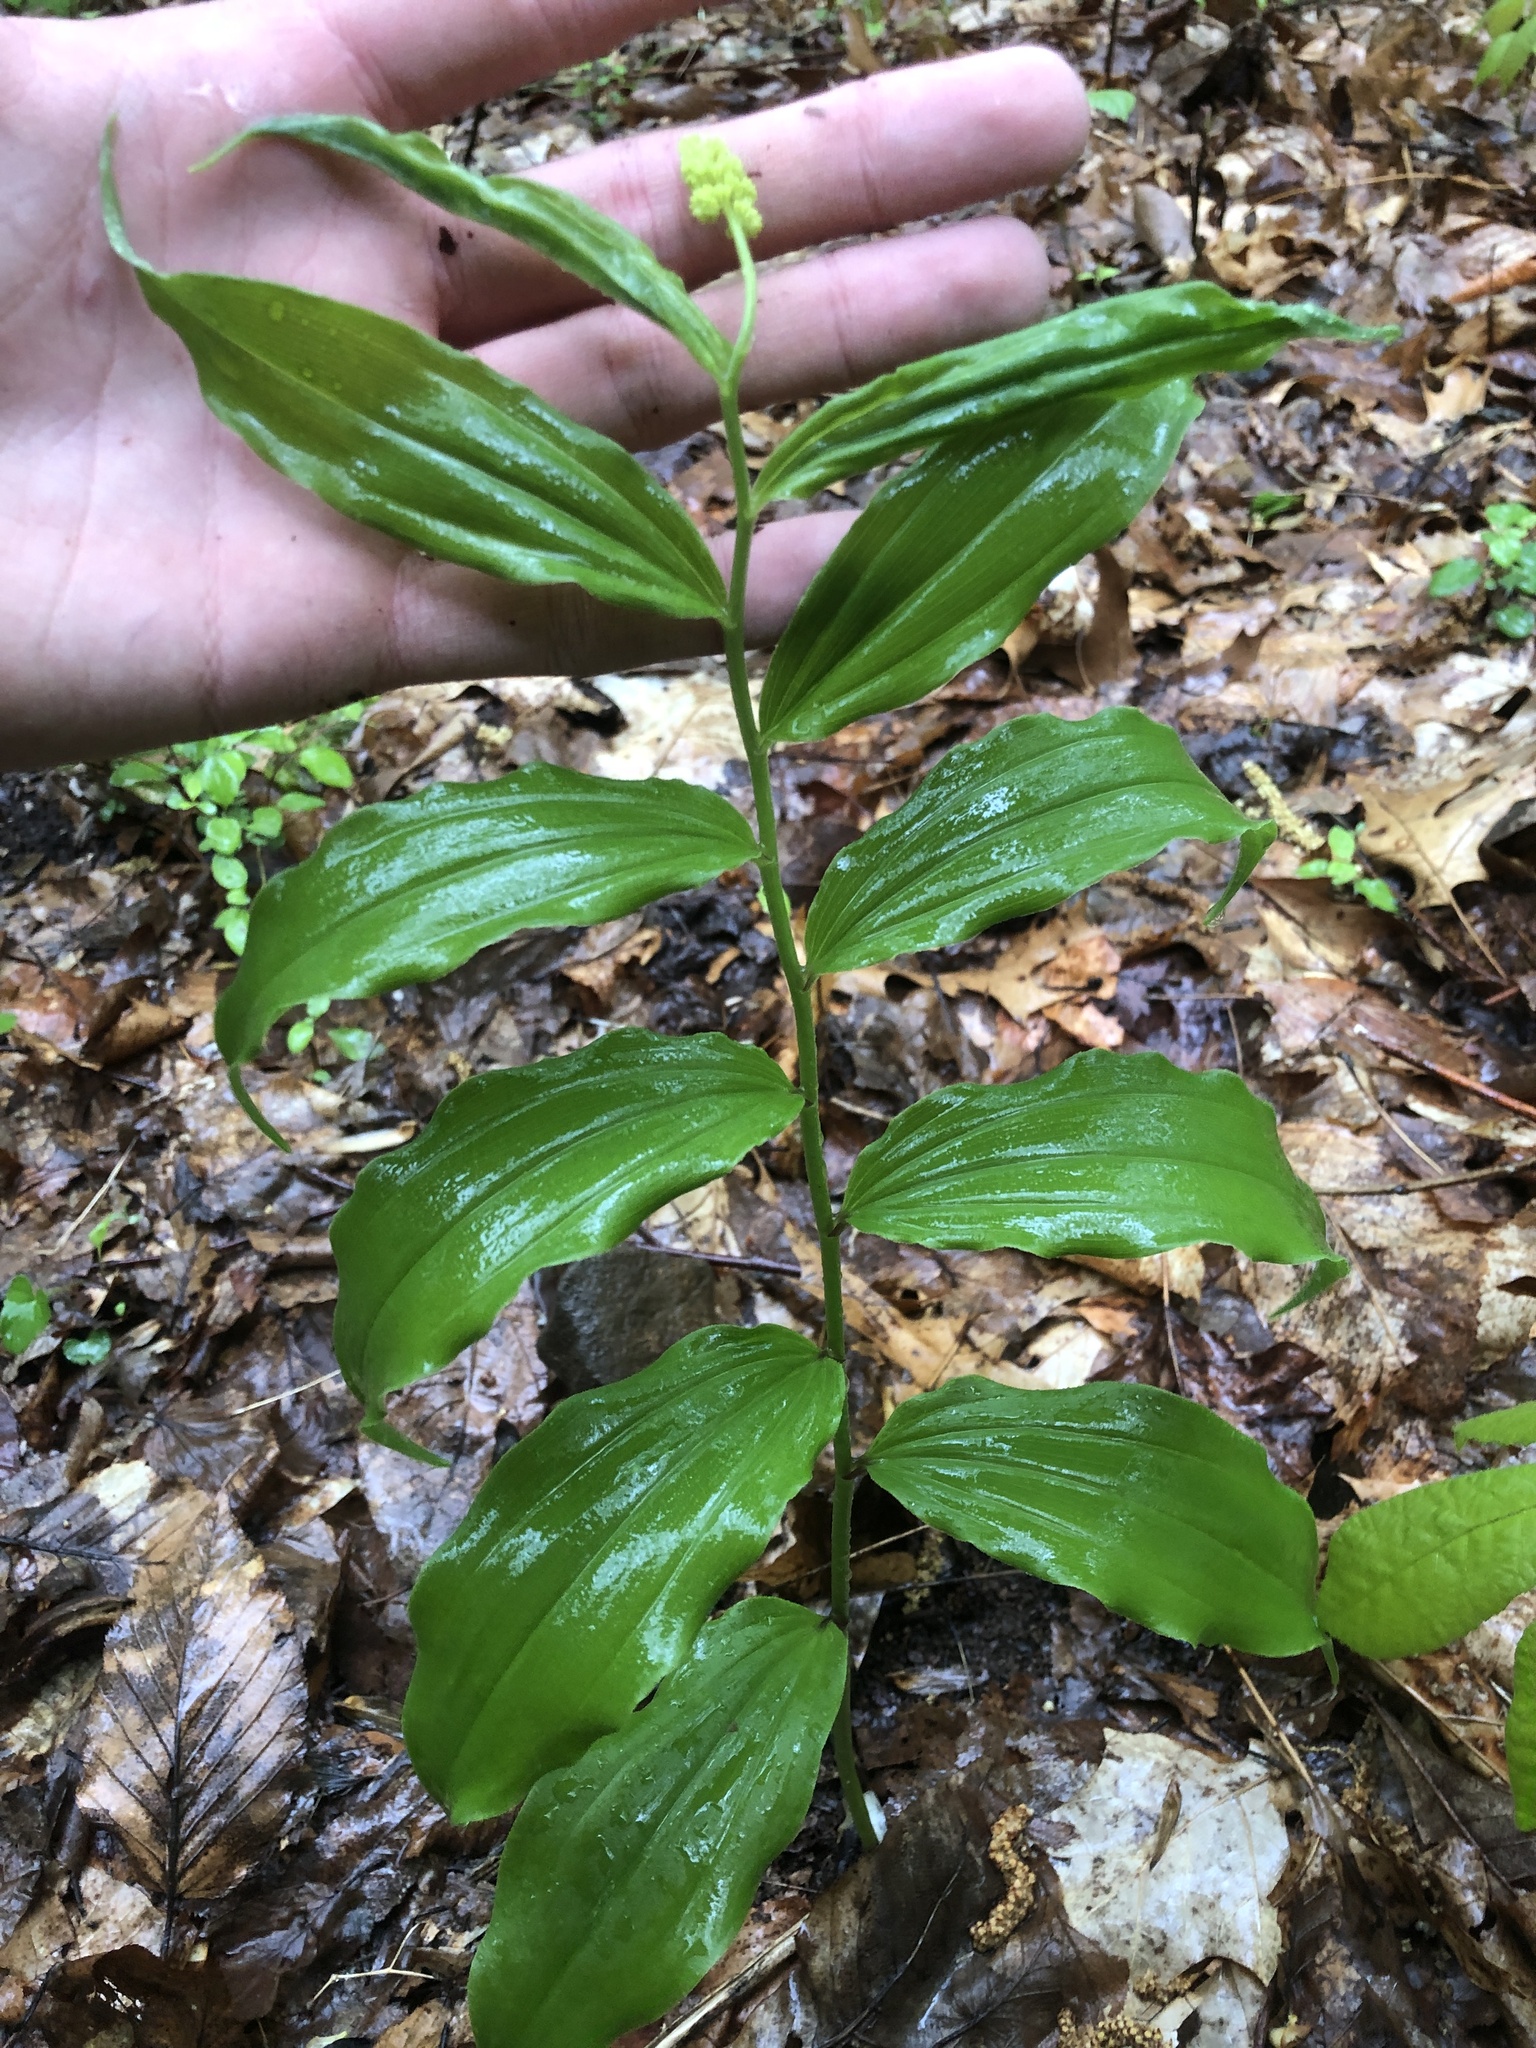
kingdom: Plantae
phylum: Tracheophyta
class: Liliopsida
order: Asparagales
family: Asparagaceae
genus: Maianthemum
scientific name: Maianthemum racemosum
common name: False spikenard
